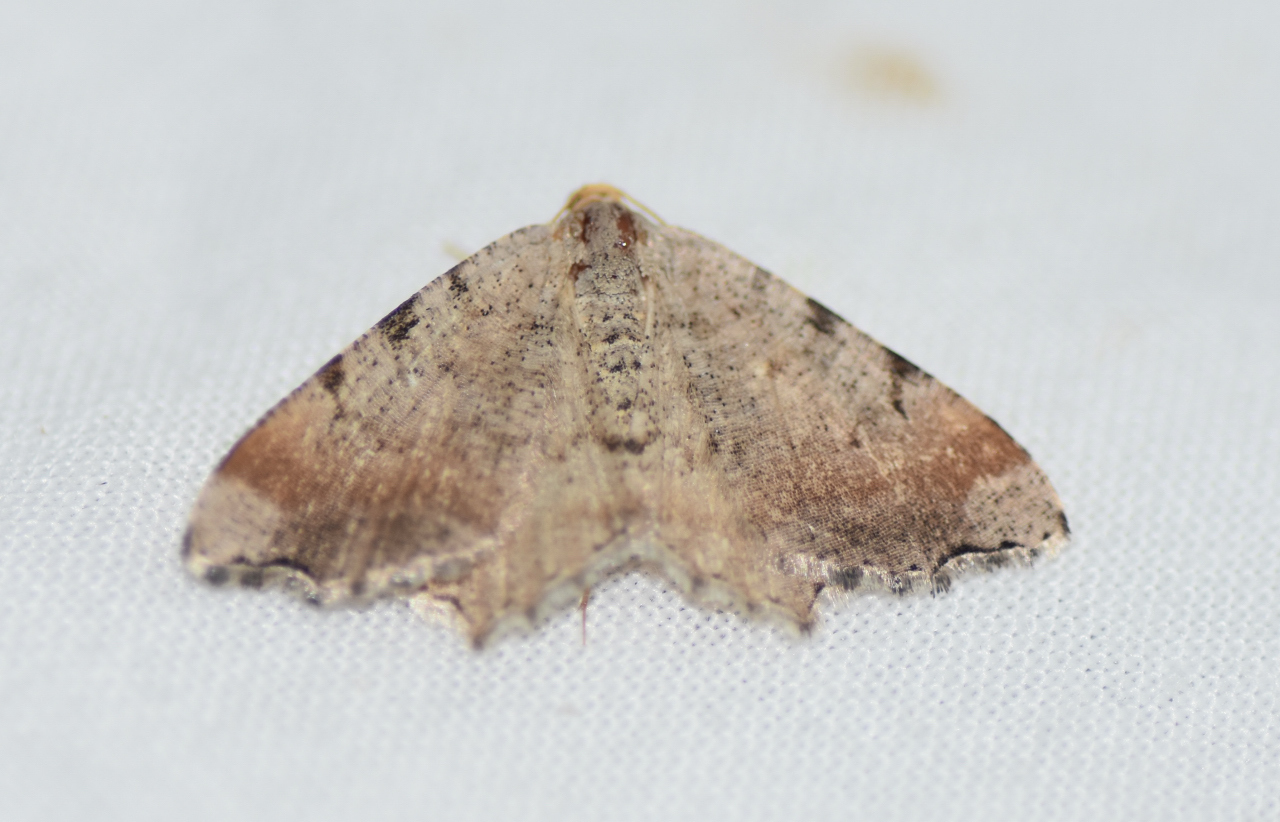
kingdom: Animalia
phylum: Arthropoda
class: Insecta
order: Lepidoptera
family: Geometridae
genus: Macaria
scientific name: Macaria minorata
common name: Minor angle moth
